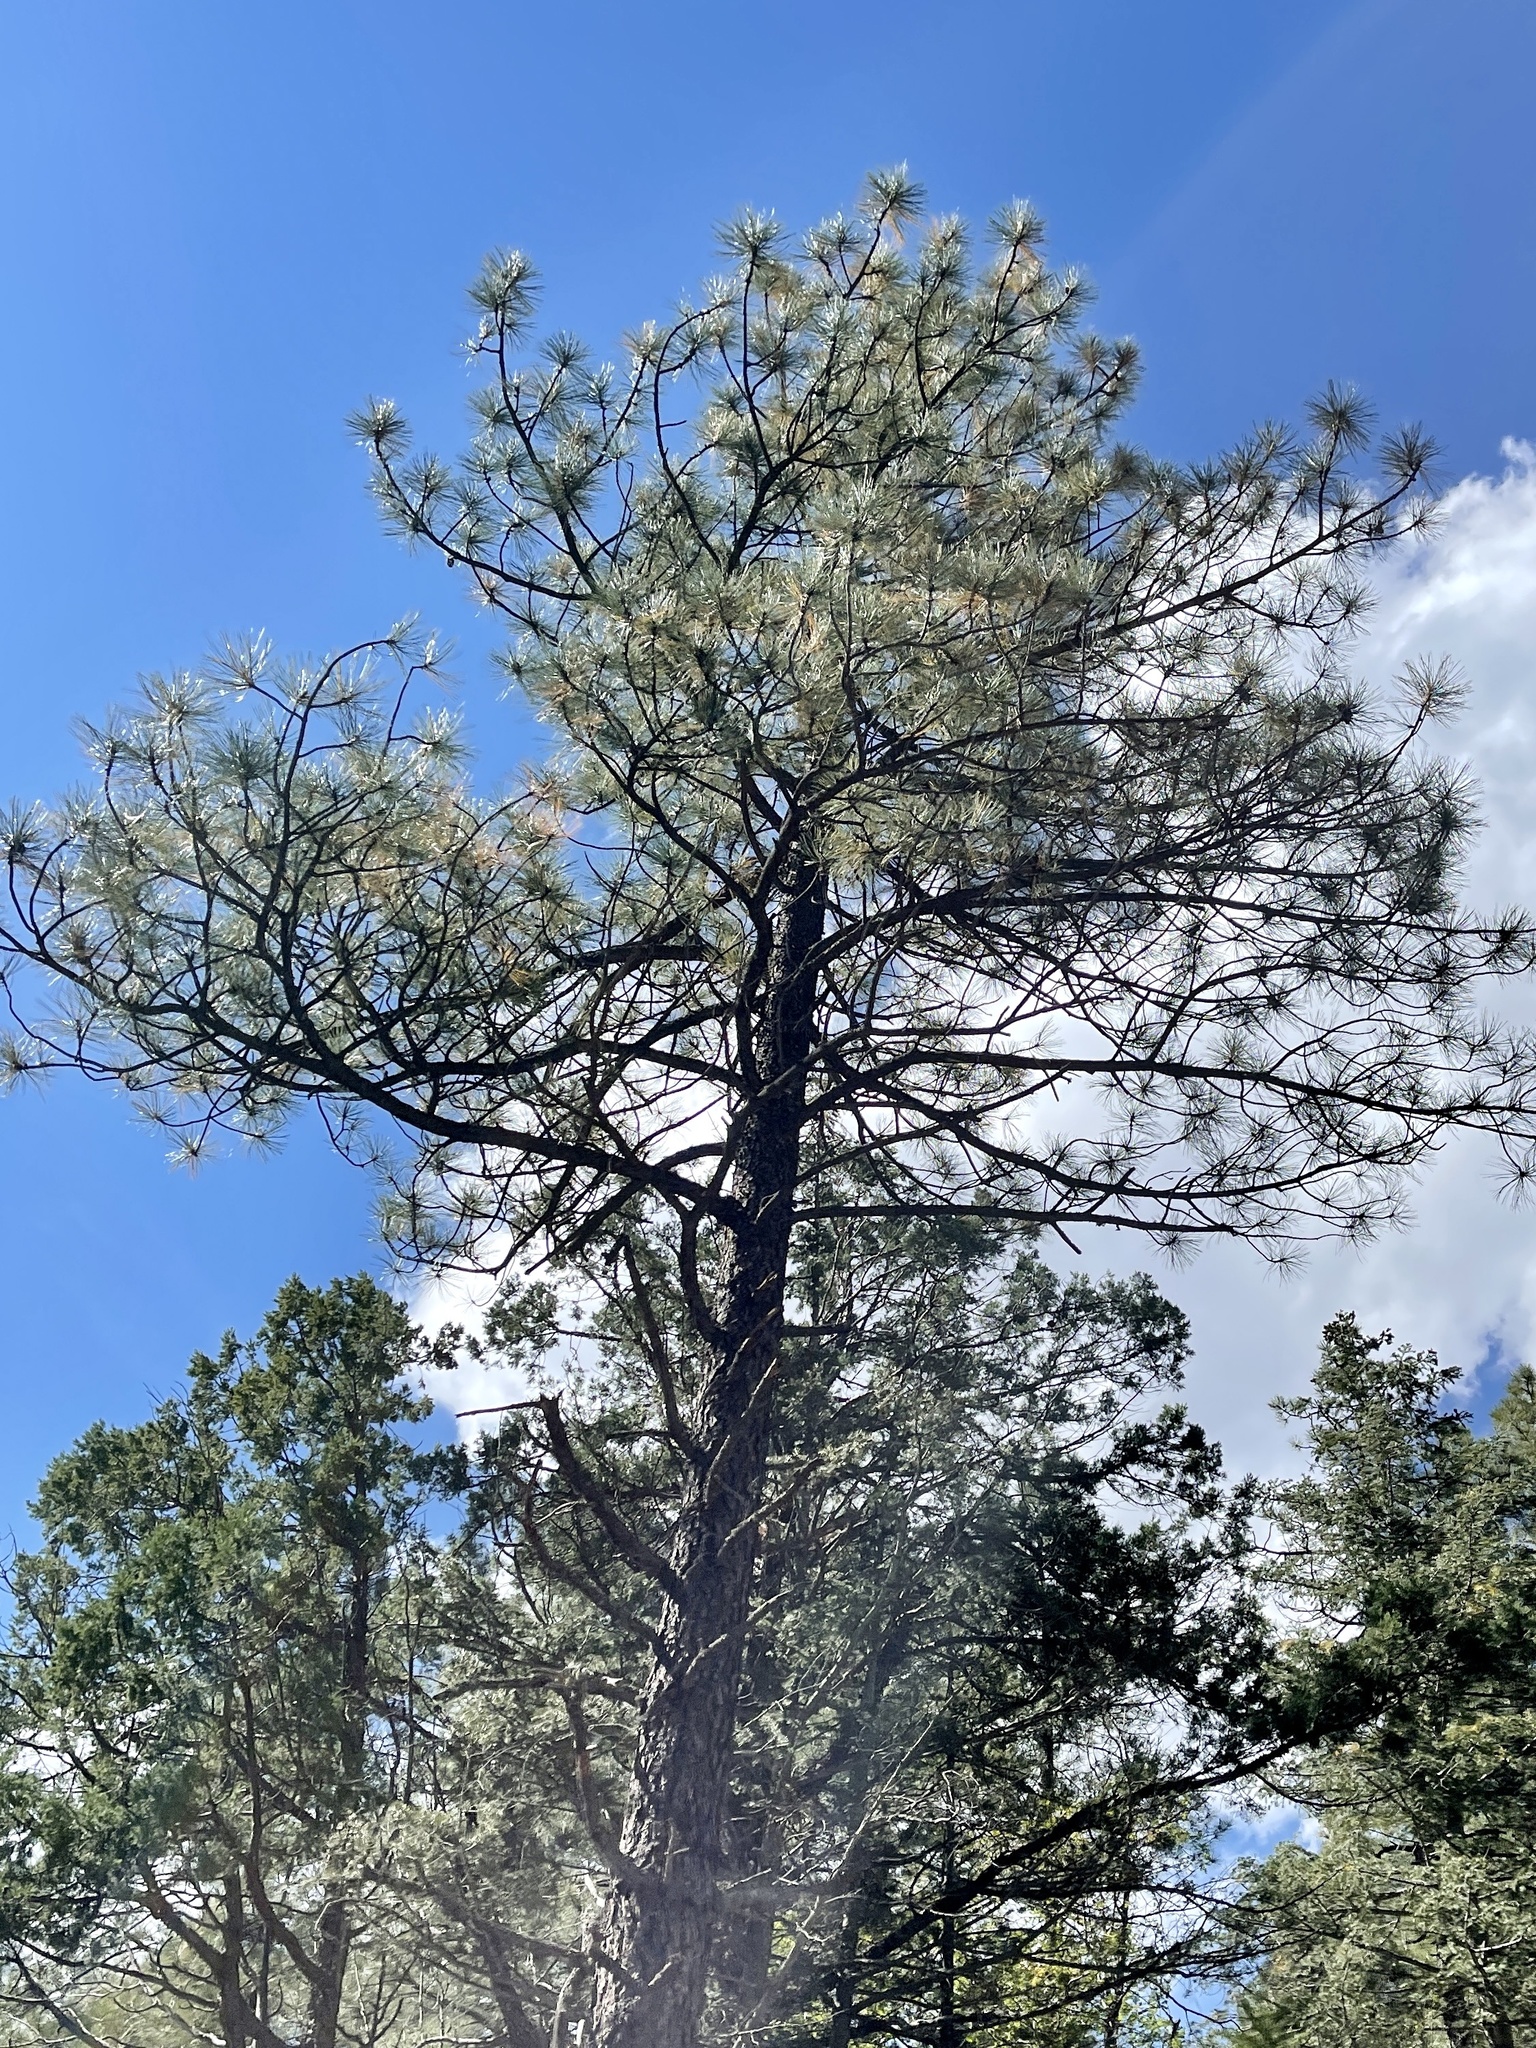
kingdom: Plantae
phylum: Tracheophyta
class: Pinopsida
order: Pinales
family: Pinaceae
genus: Pinus
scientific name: Pinus ponderosa
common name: Western yellow-pine
